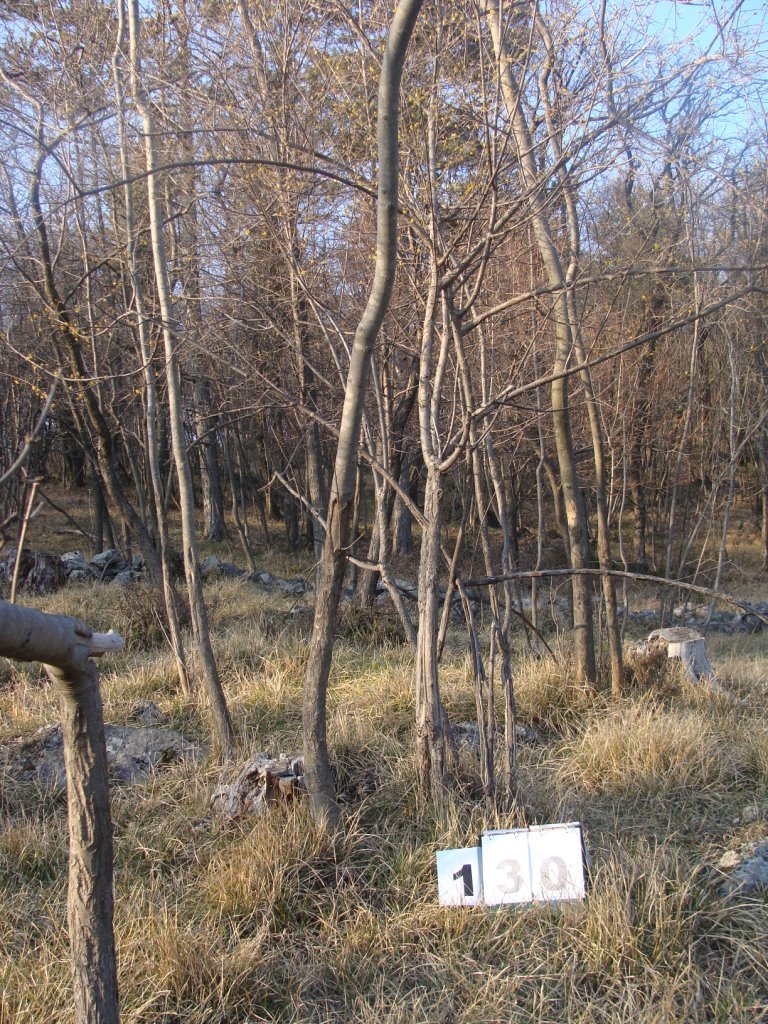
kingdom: Plantae
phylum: Tracheophyta
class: Magnoliopsida
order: Cornales
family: Cornaceae
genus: Cornus
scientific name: Cornus mas
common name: Cornelian-cherry
